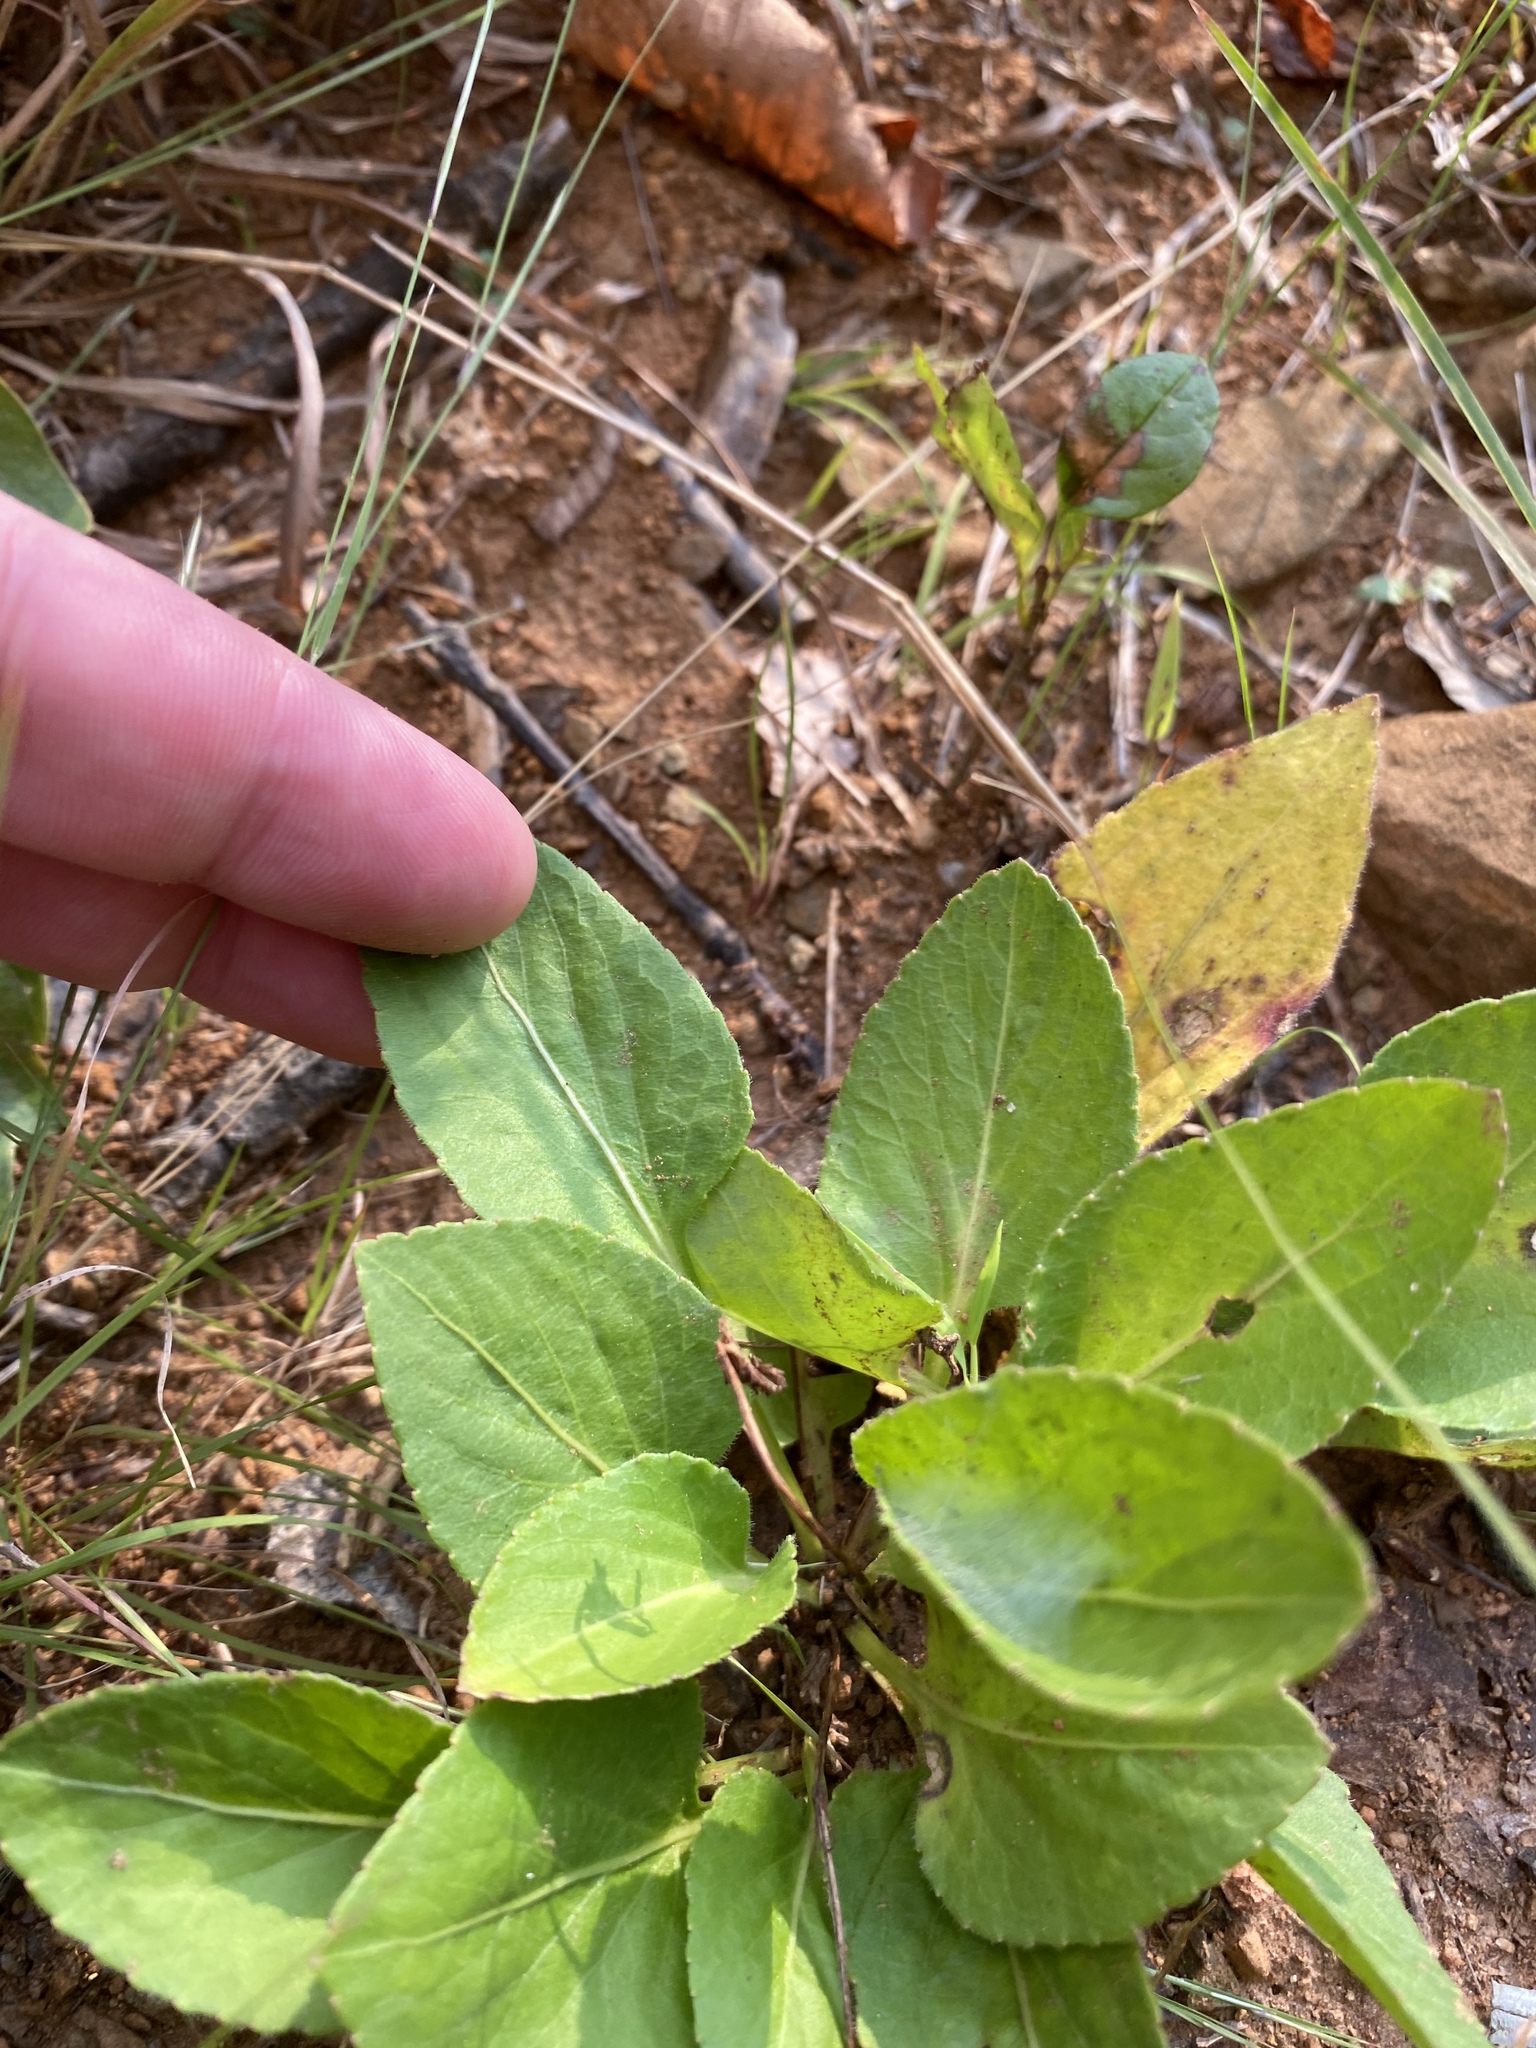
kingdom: Plantae
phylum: Tracheophyta
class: Magnoliopsida
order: Malpighiales
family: Violaceae
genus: Viola
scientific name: Viola fimbriatula
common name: Sand violet
